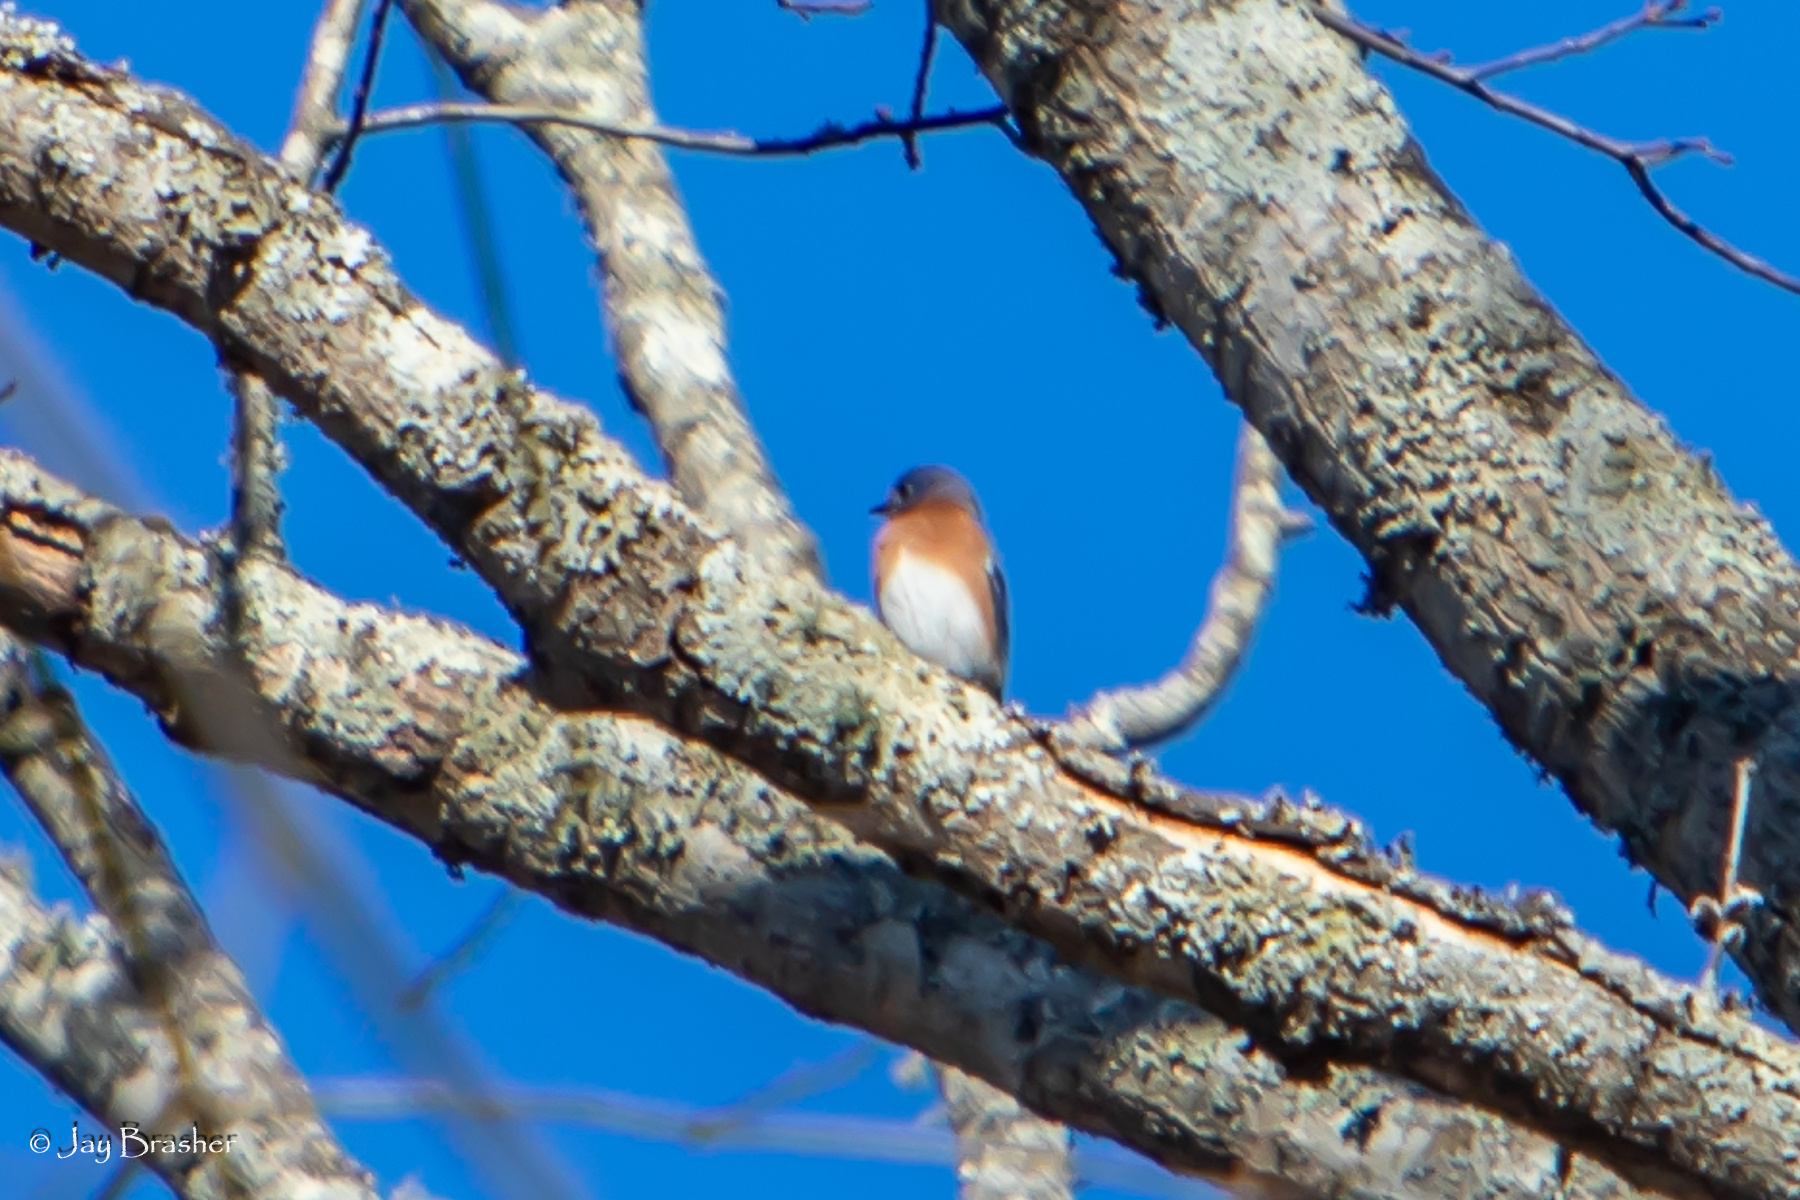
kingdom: Animalia
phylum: Chordata
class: Aves
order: Passeriformes
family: Turdidae
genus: Sialia
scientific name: Sialia sialis
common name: Eastern bluebird
